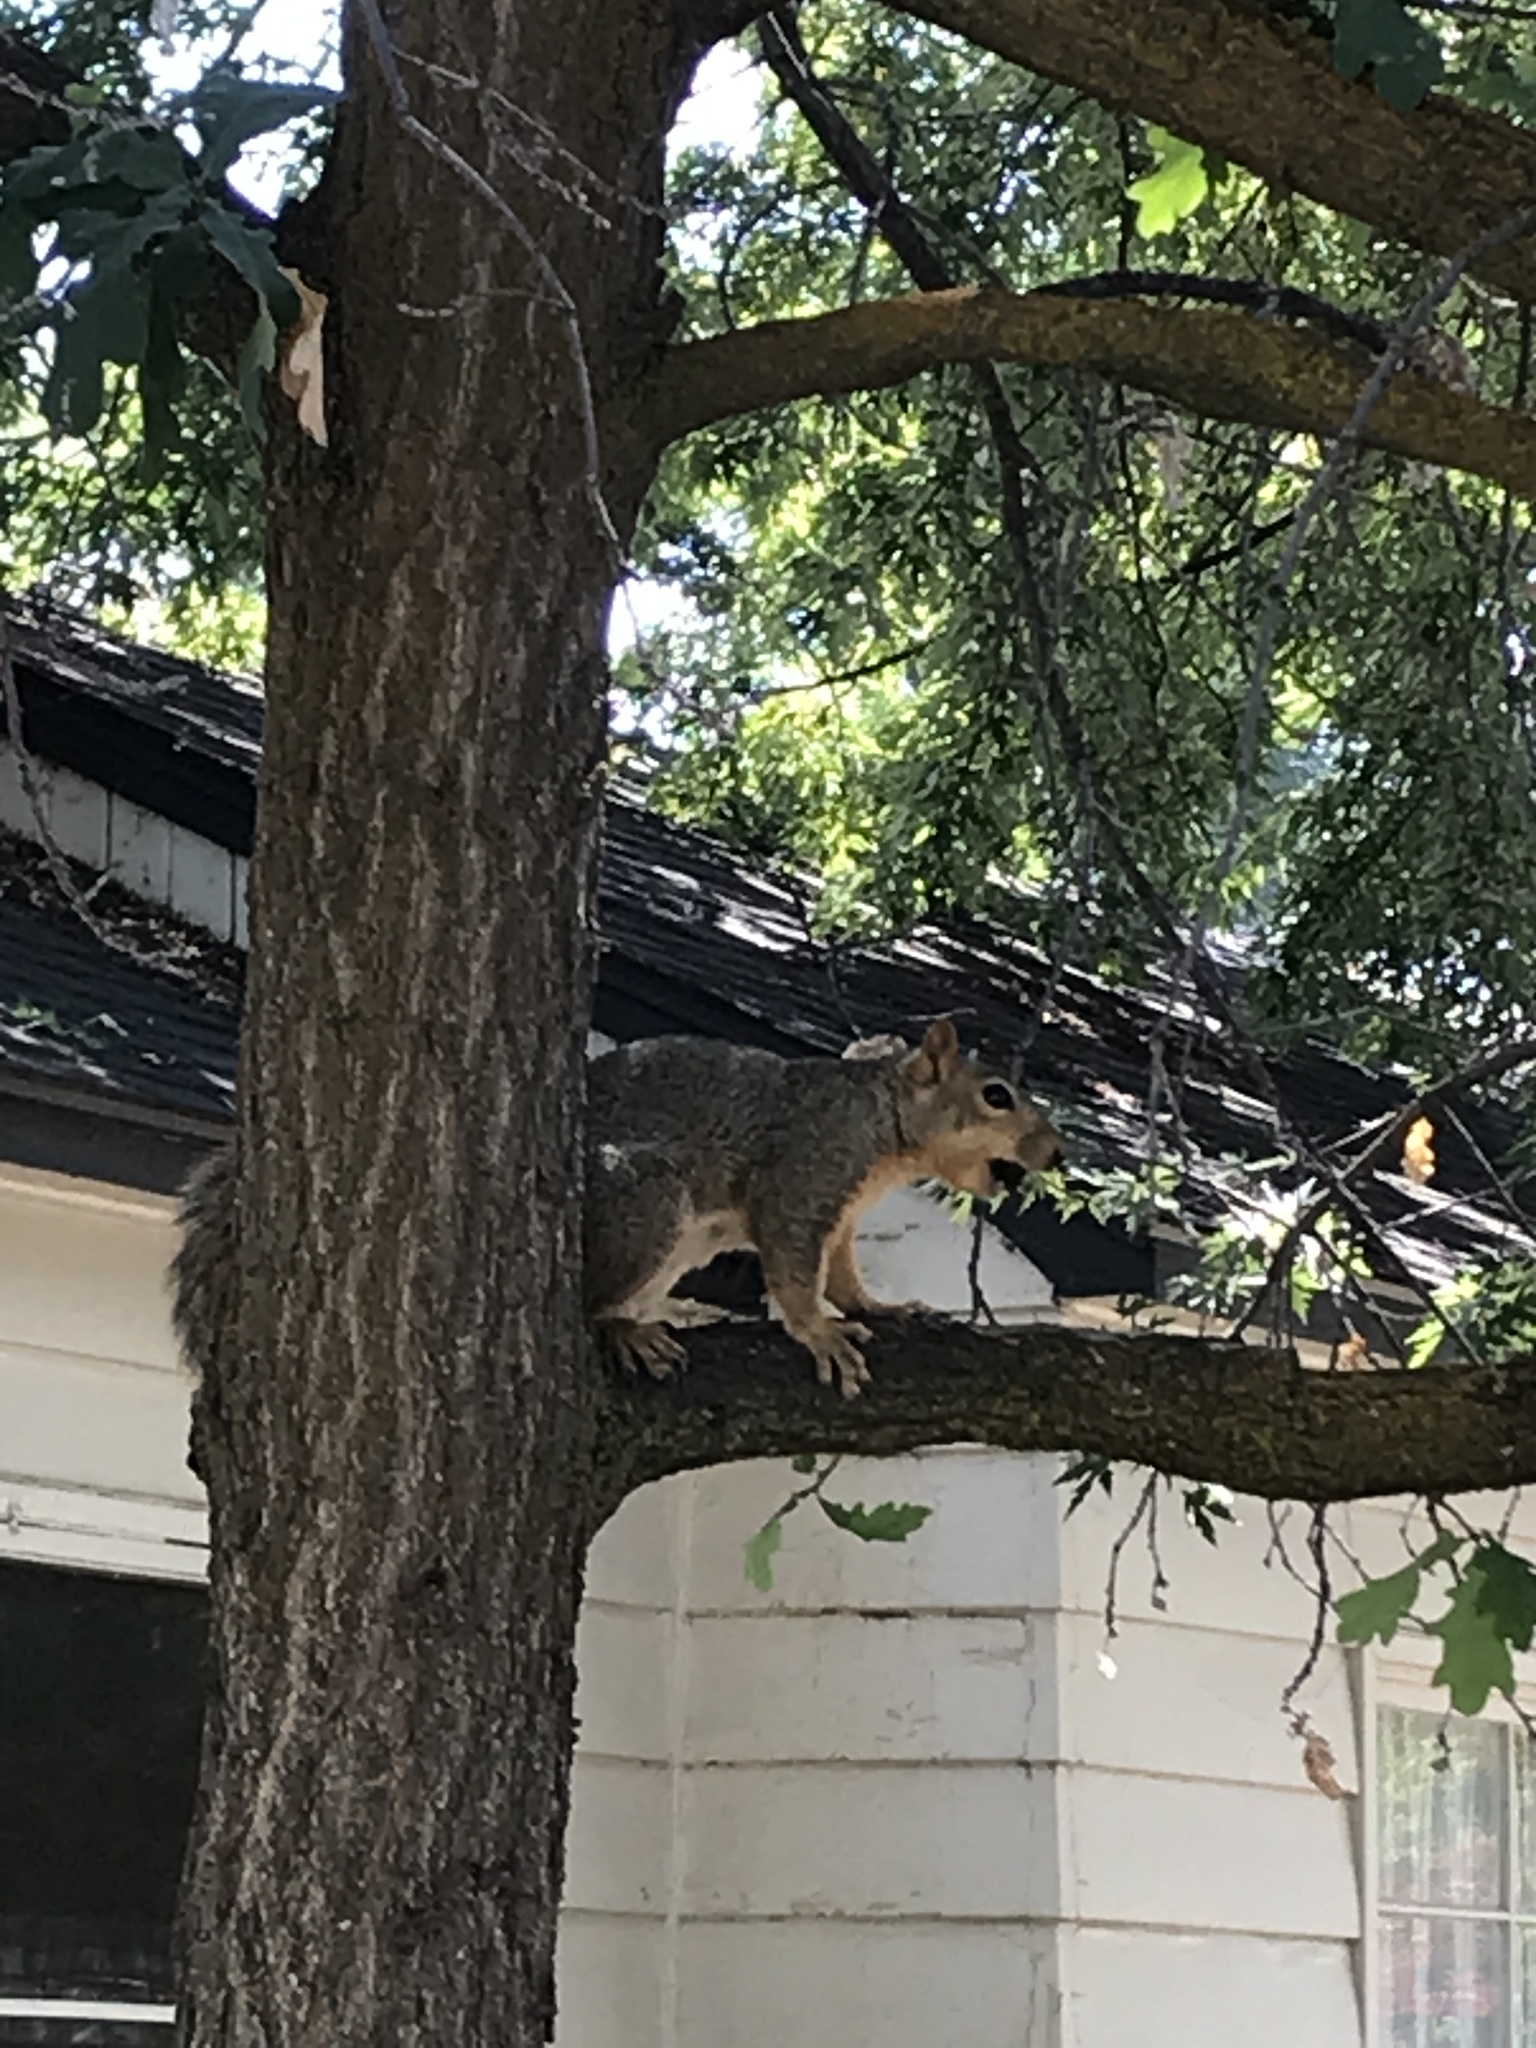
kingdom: Animalia
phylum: Chordata
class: Mammalia
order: Rodentia
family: Sciuridae
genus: Sciurus
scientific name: Sciurus niger
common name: Fox squirrel
